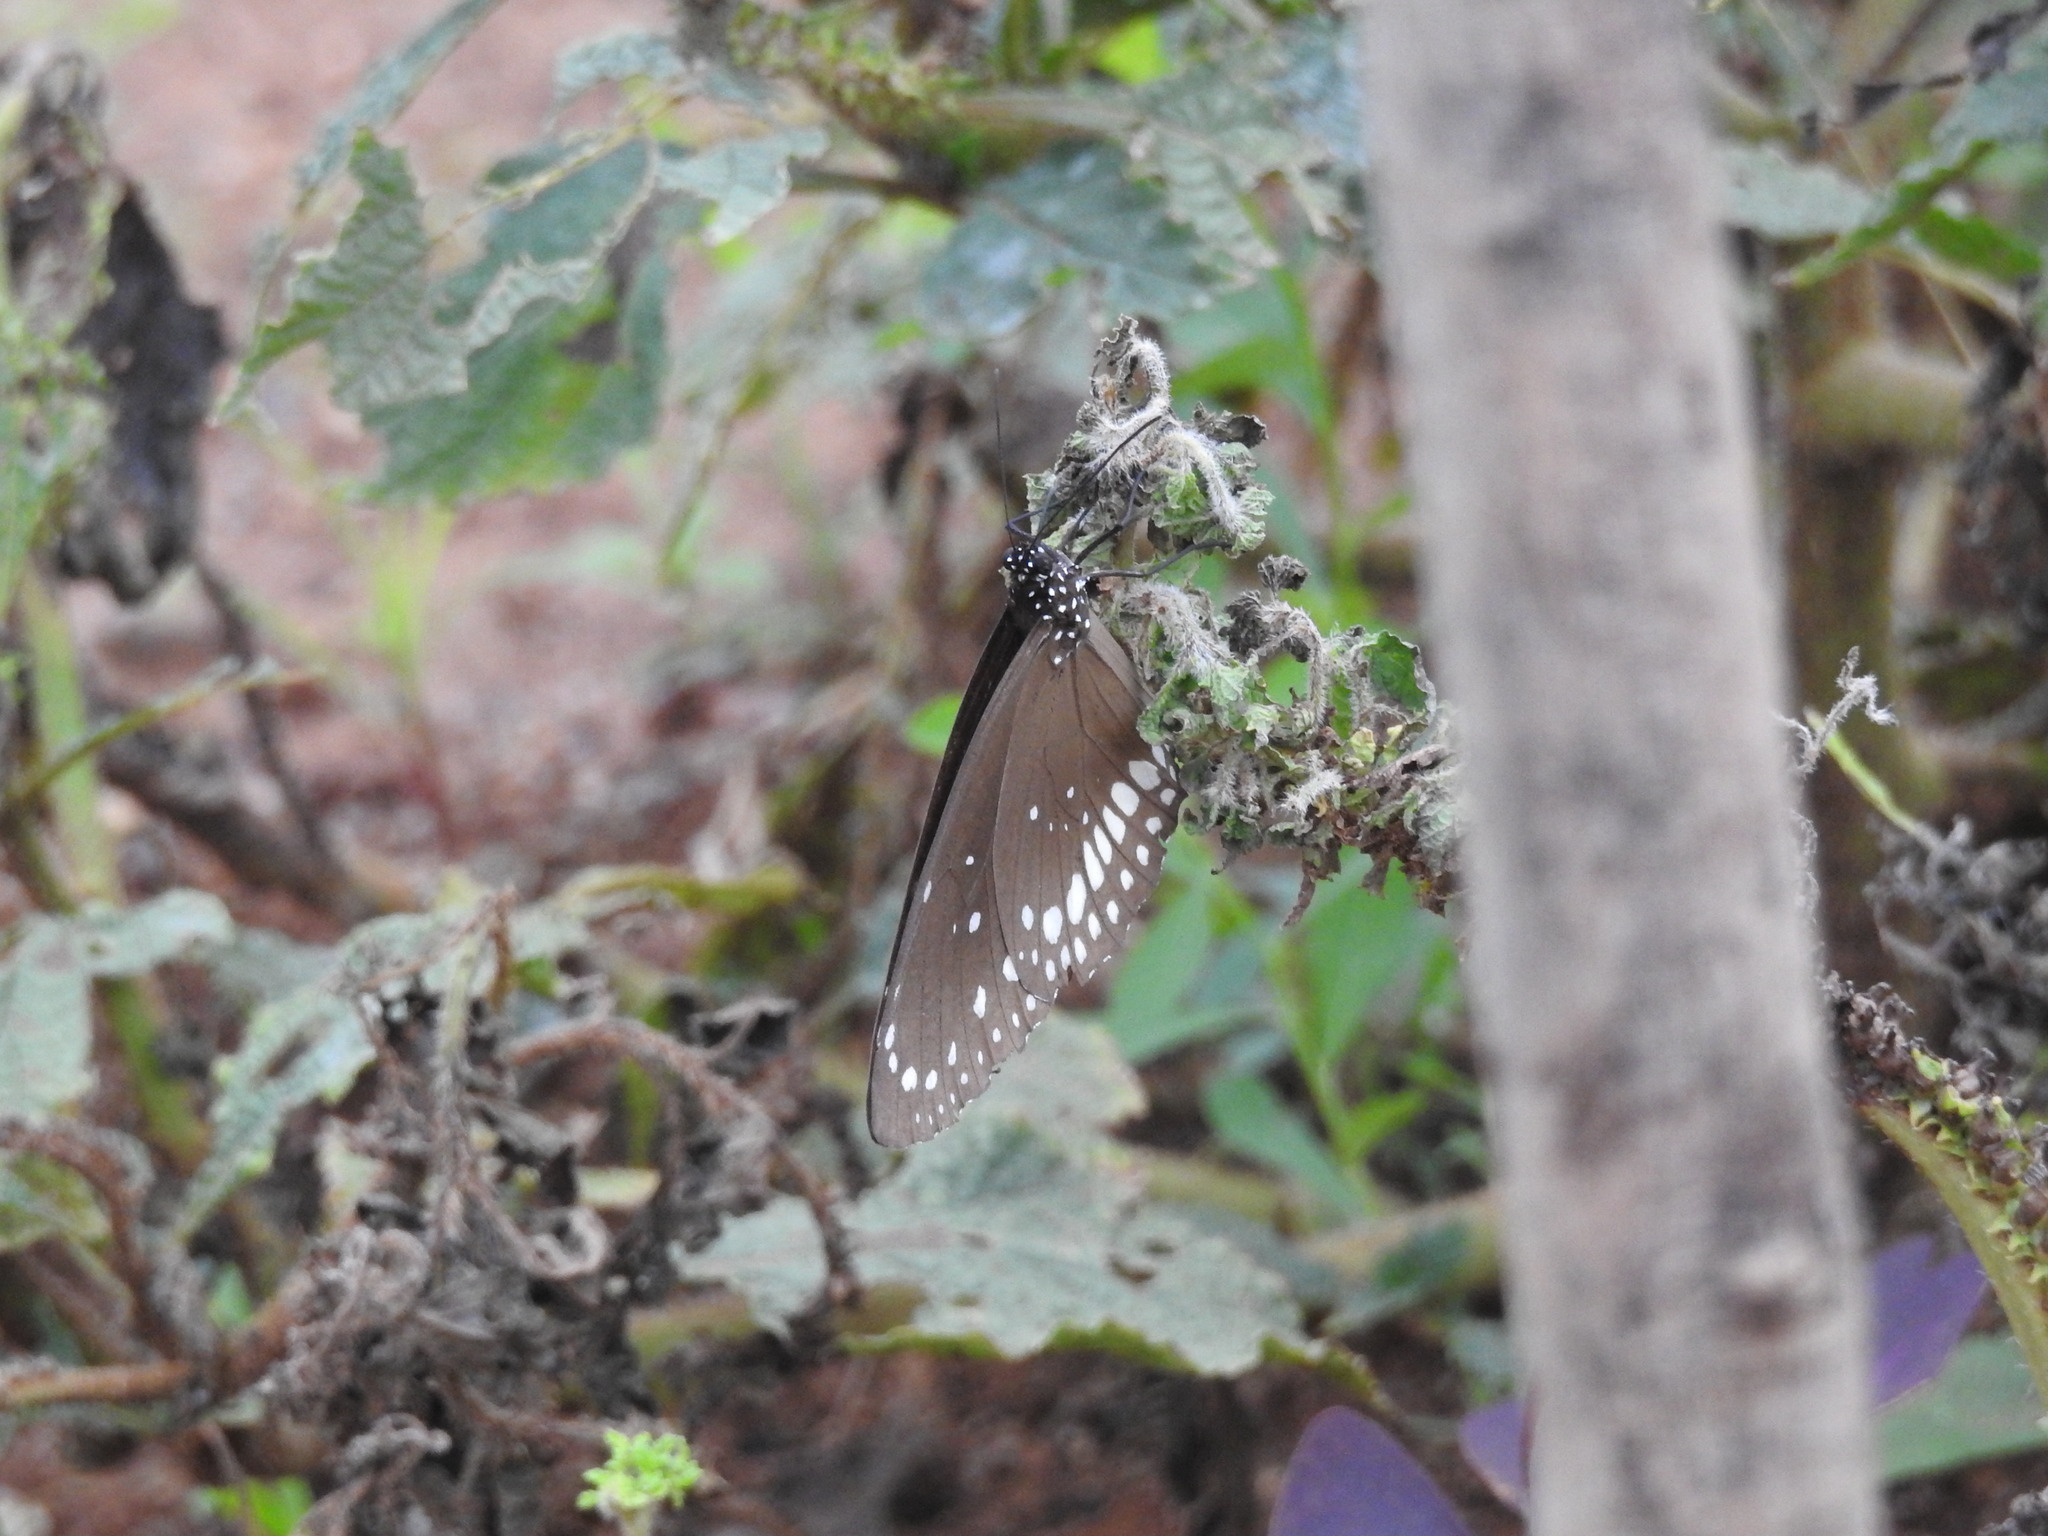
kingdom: Animalia
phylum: Arthropoda
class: Insecta
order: Lepidoptera
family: Nymphalidae
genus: Euploea
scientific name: Euploea core
